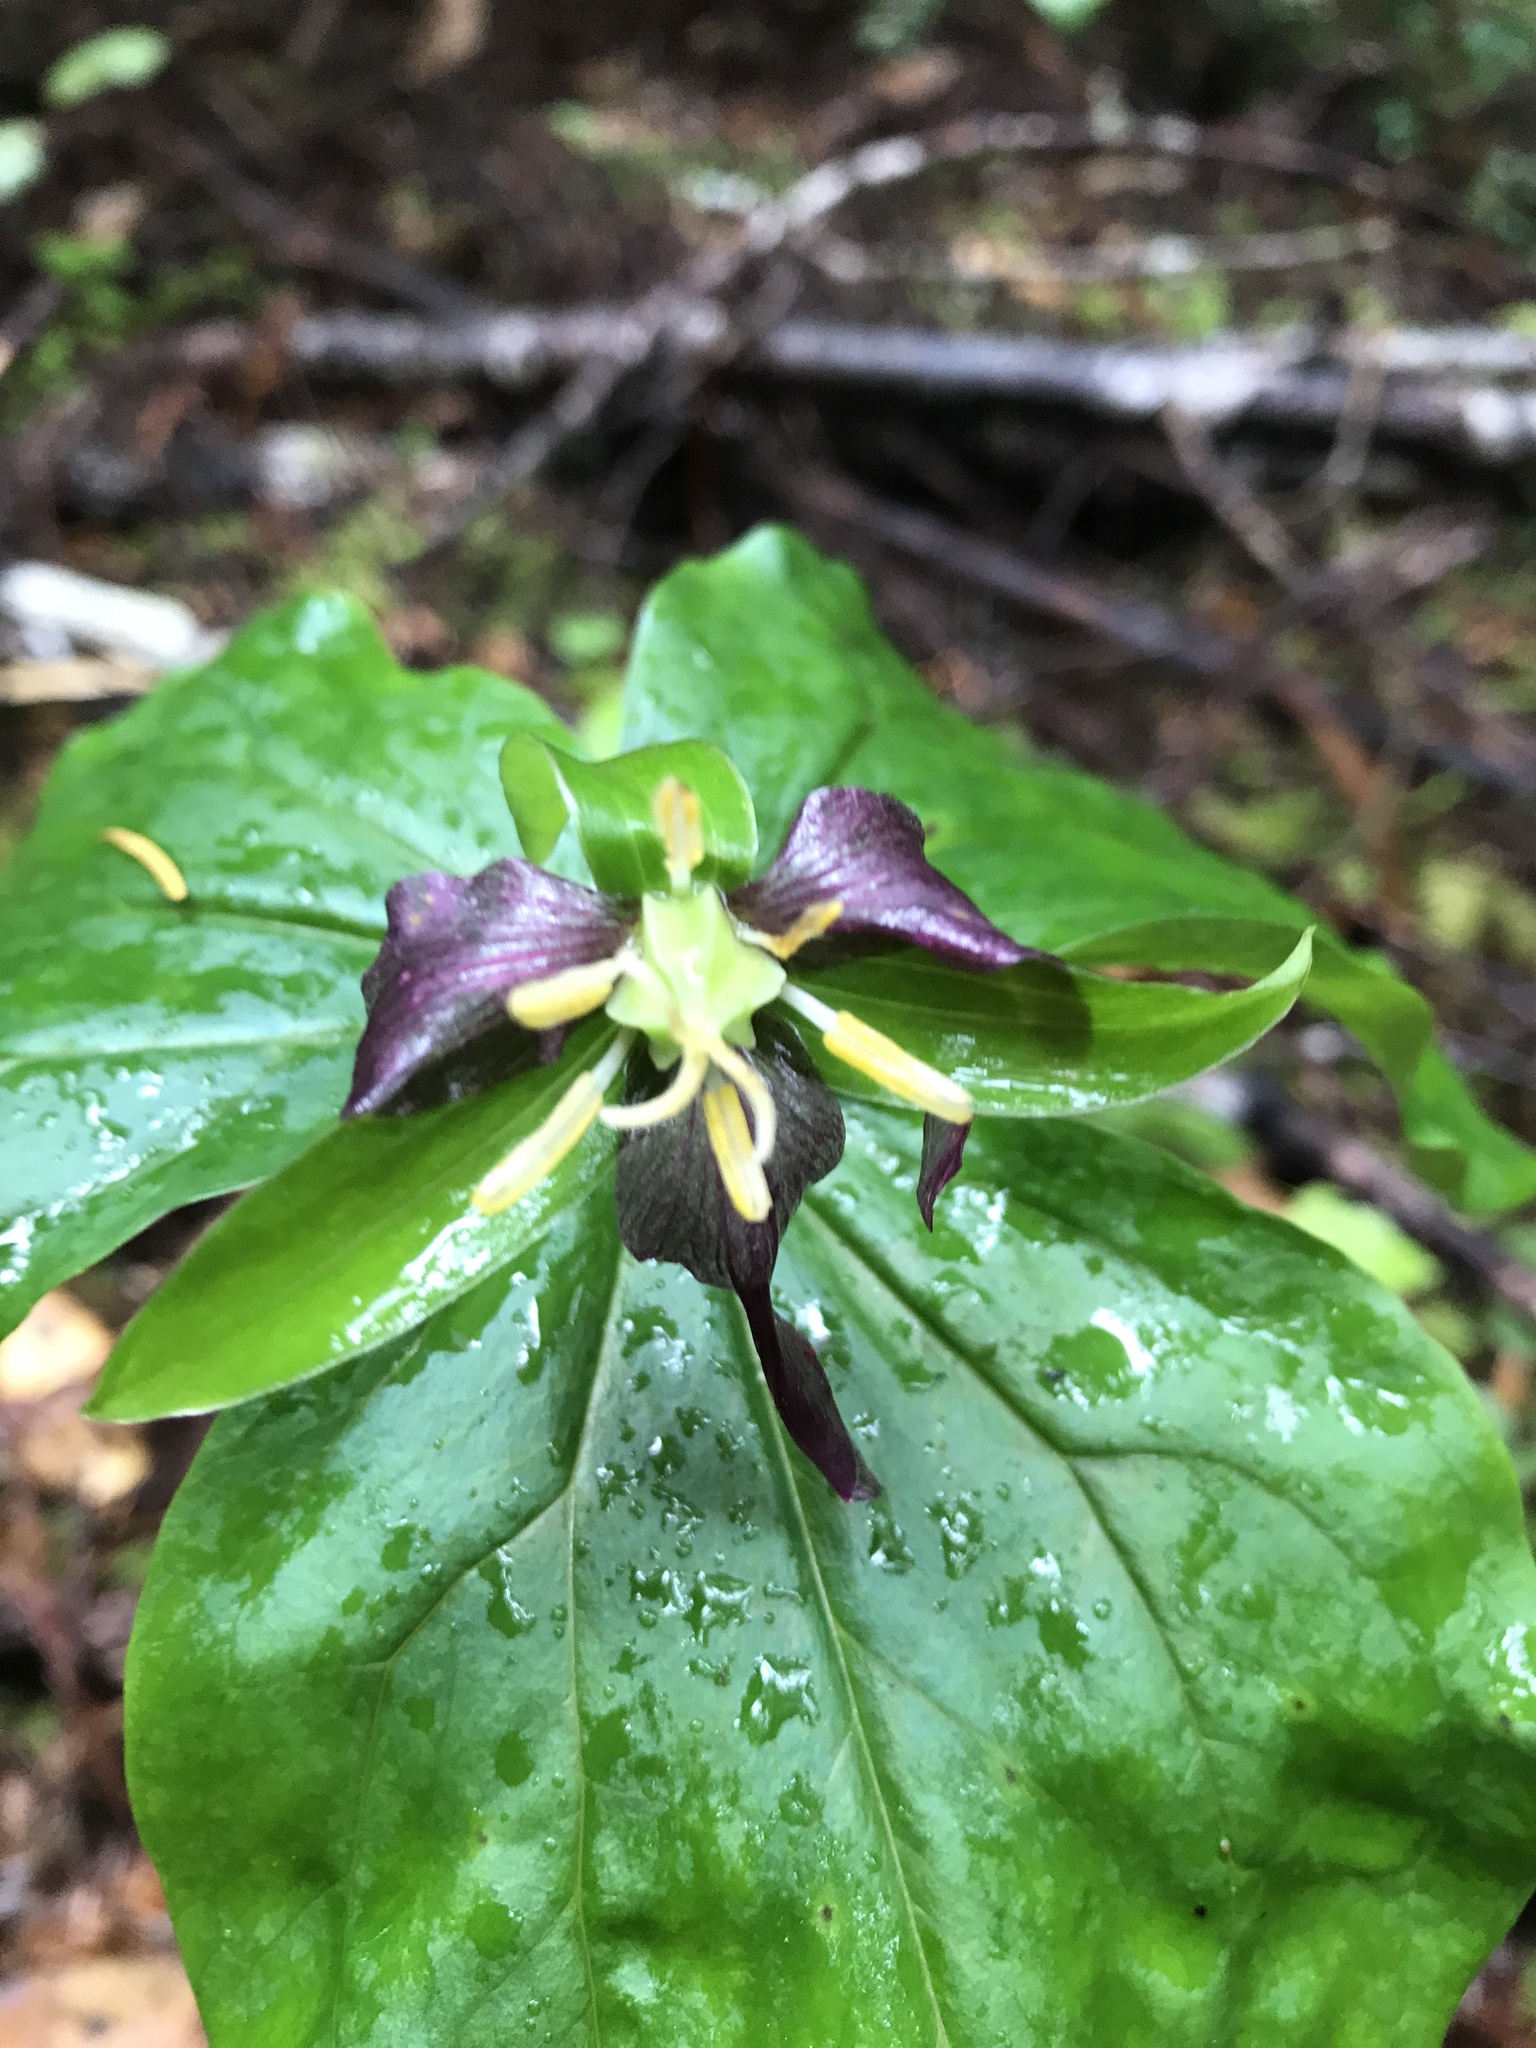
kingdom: Plantae
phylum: Tracheophyta
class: Liliopsida
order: Liliales
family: Melanthiaceae
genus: Trillium
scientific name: Trillium ovatum
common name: Pacific trillium
